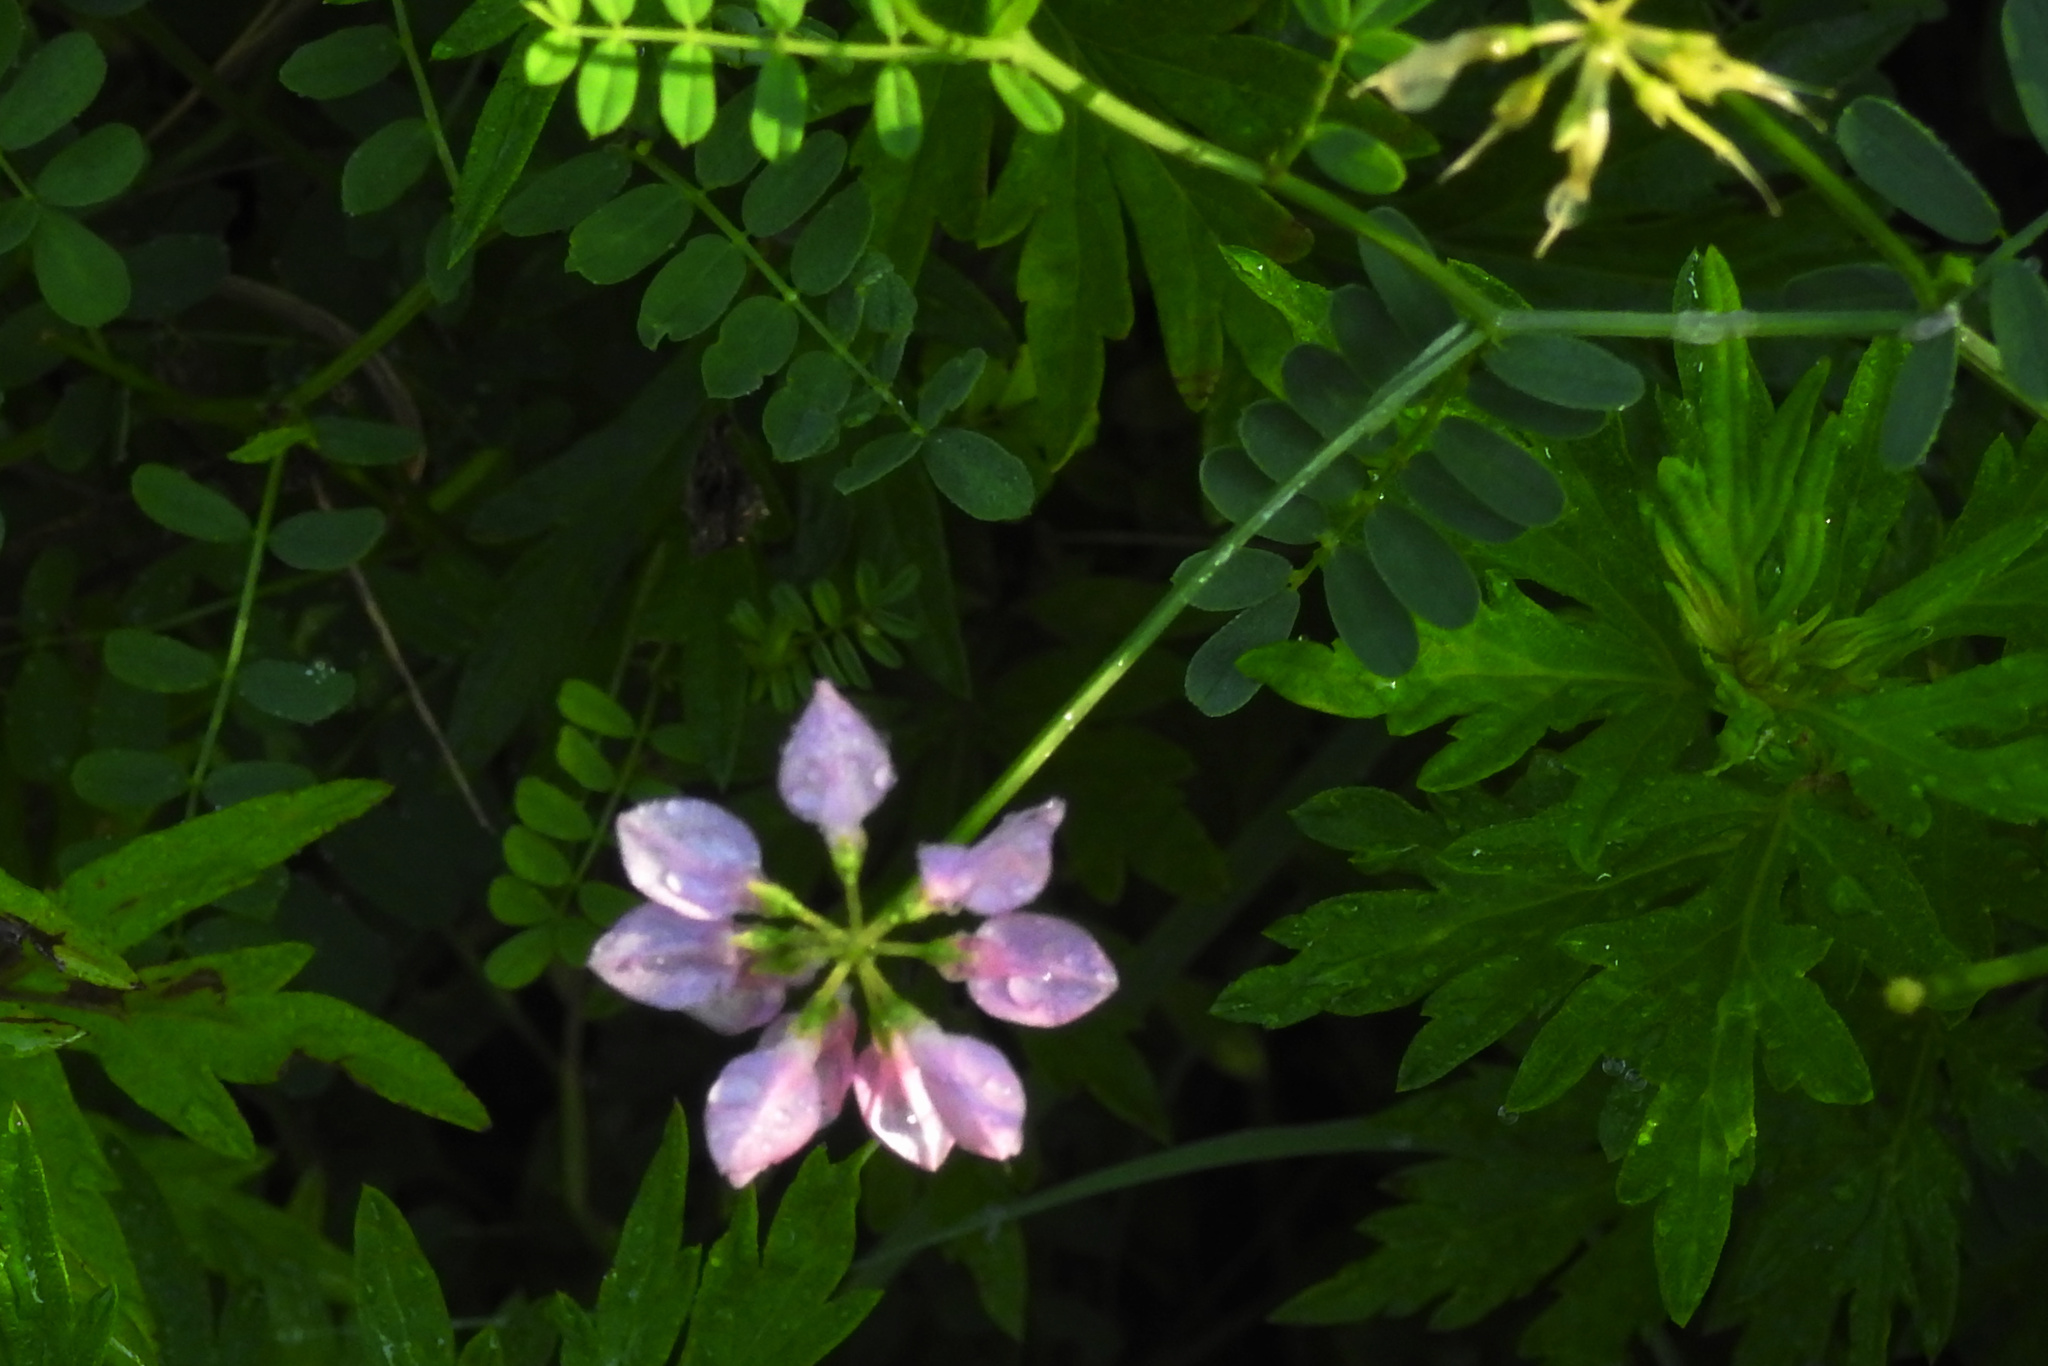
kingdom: Plantae
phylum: Tracheophyta
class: Magnoliopsida
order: Fabales
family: Fabaceae
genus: Coronilla
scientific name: Coronilla varia
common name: Crownvetch
